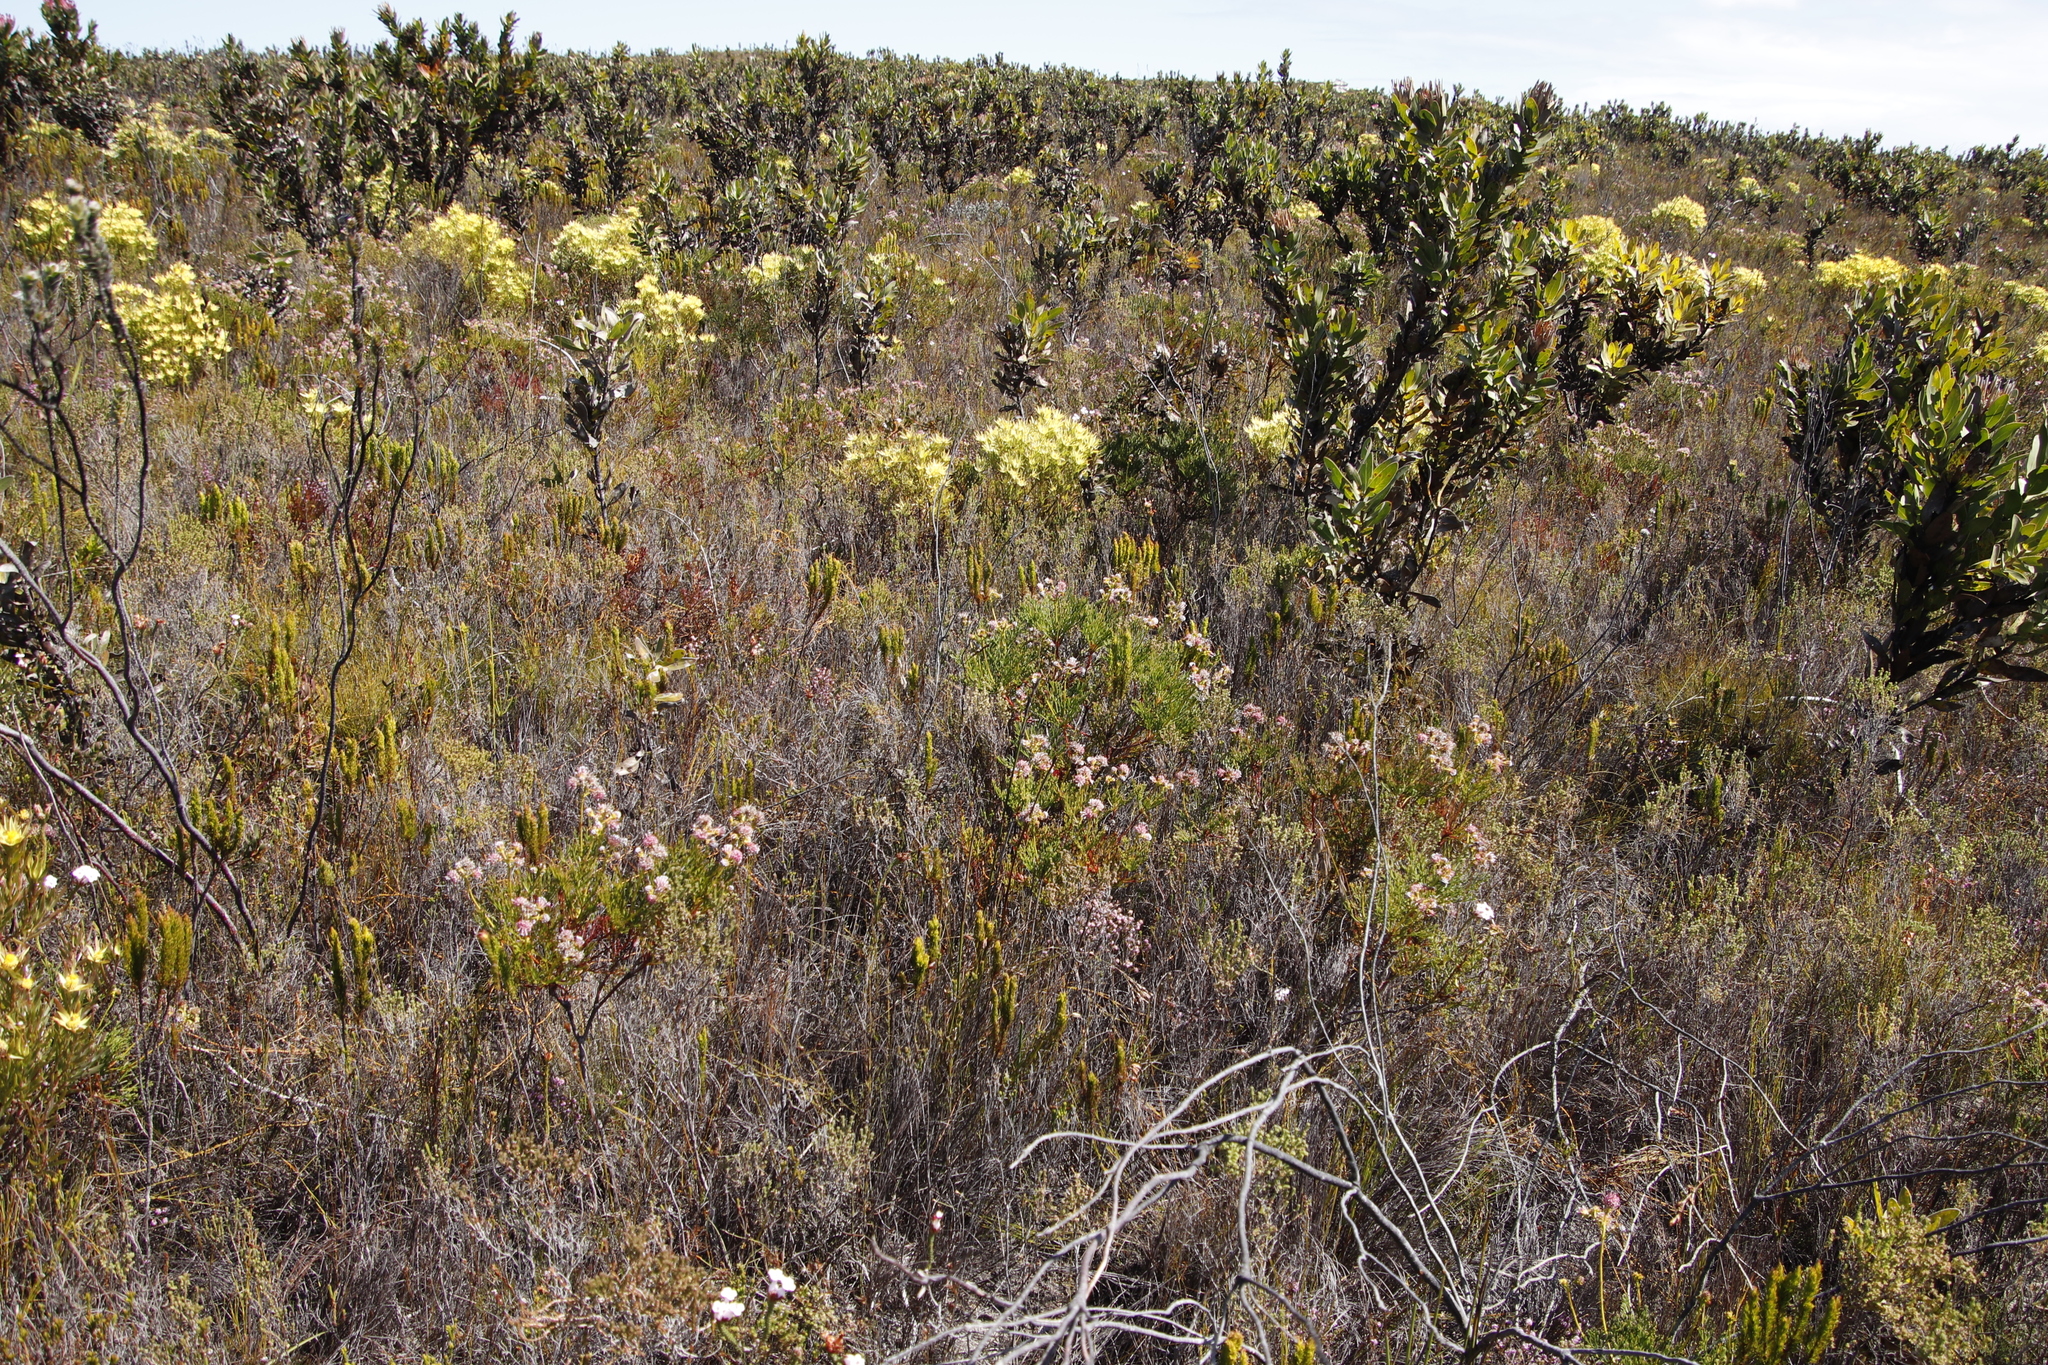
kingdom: Plantae
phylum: Tracheophyta
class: Magnoliopsida
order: Proteales
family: Proteaceae
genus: Serruria
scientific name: Serruria elongata
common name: Long-stalk spiderhead
